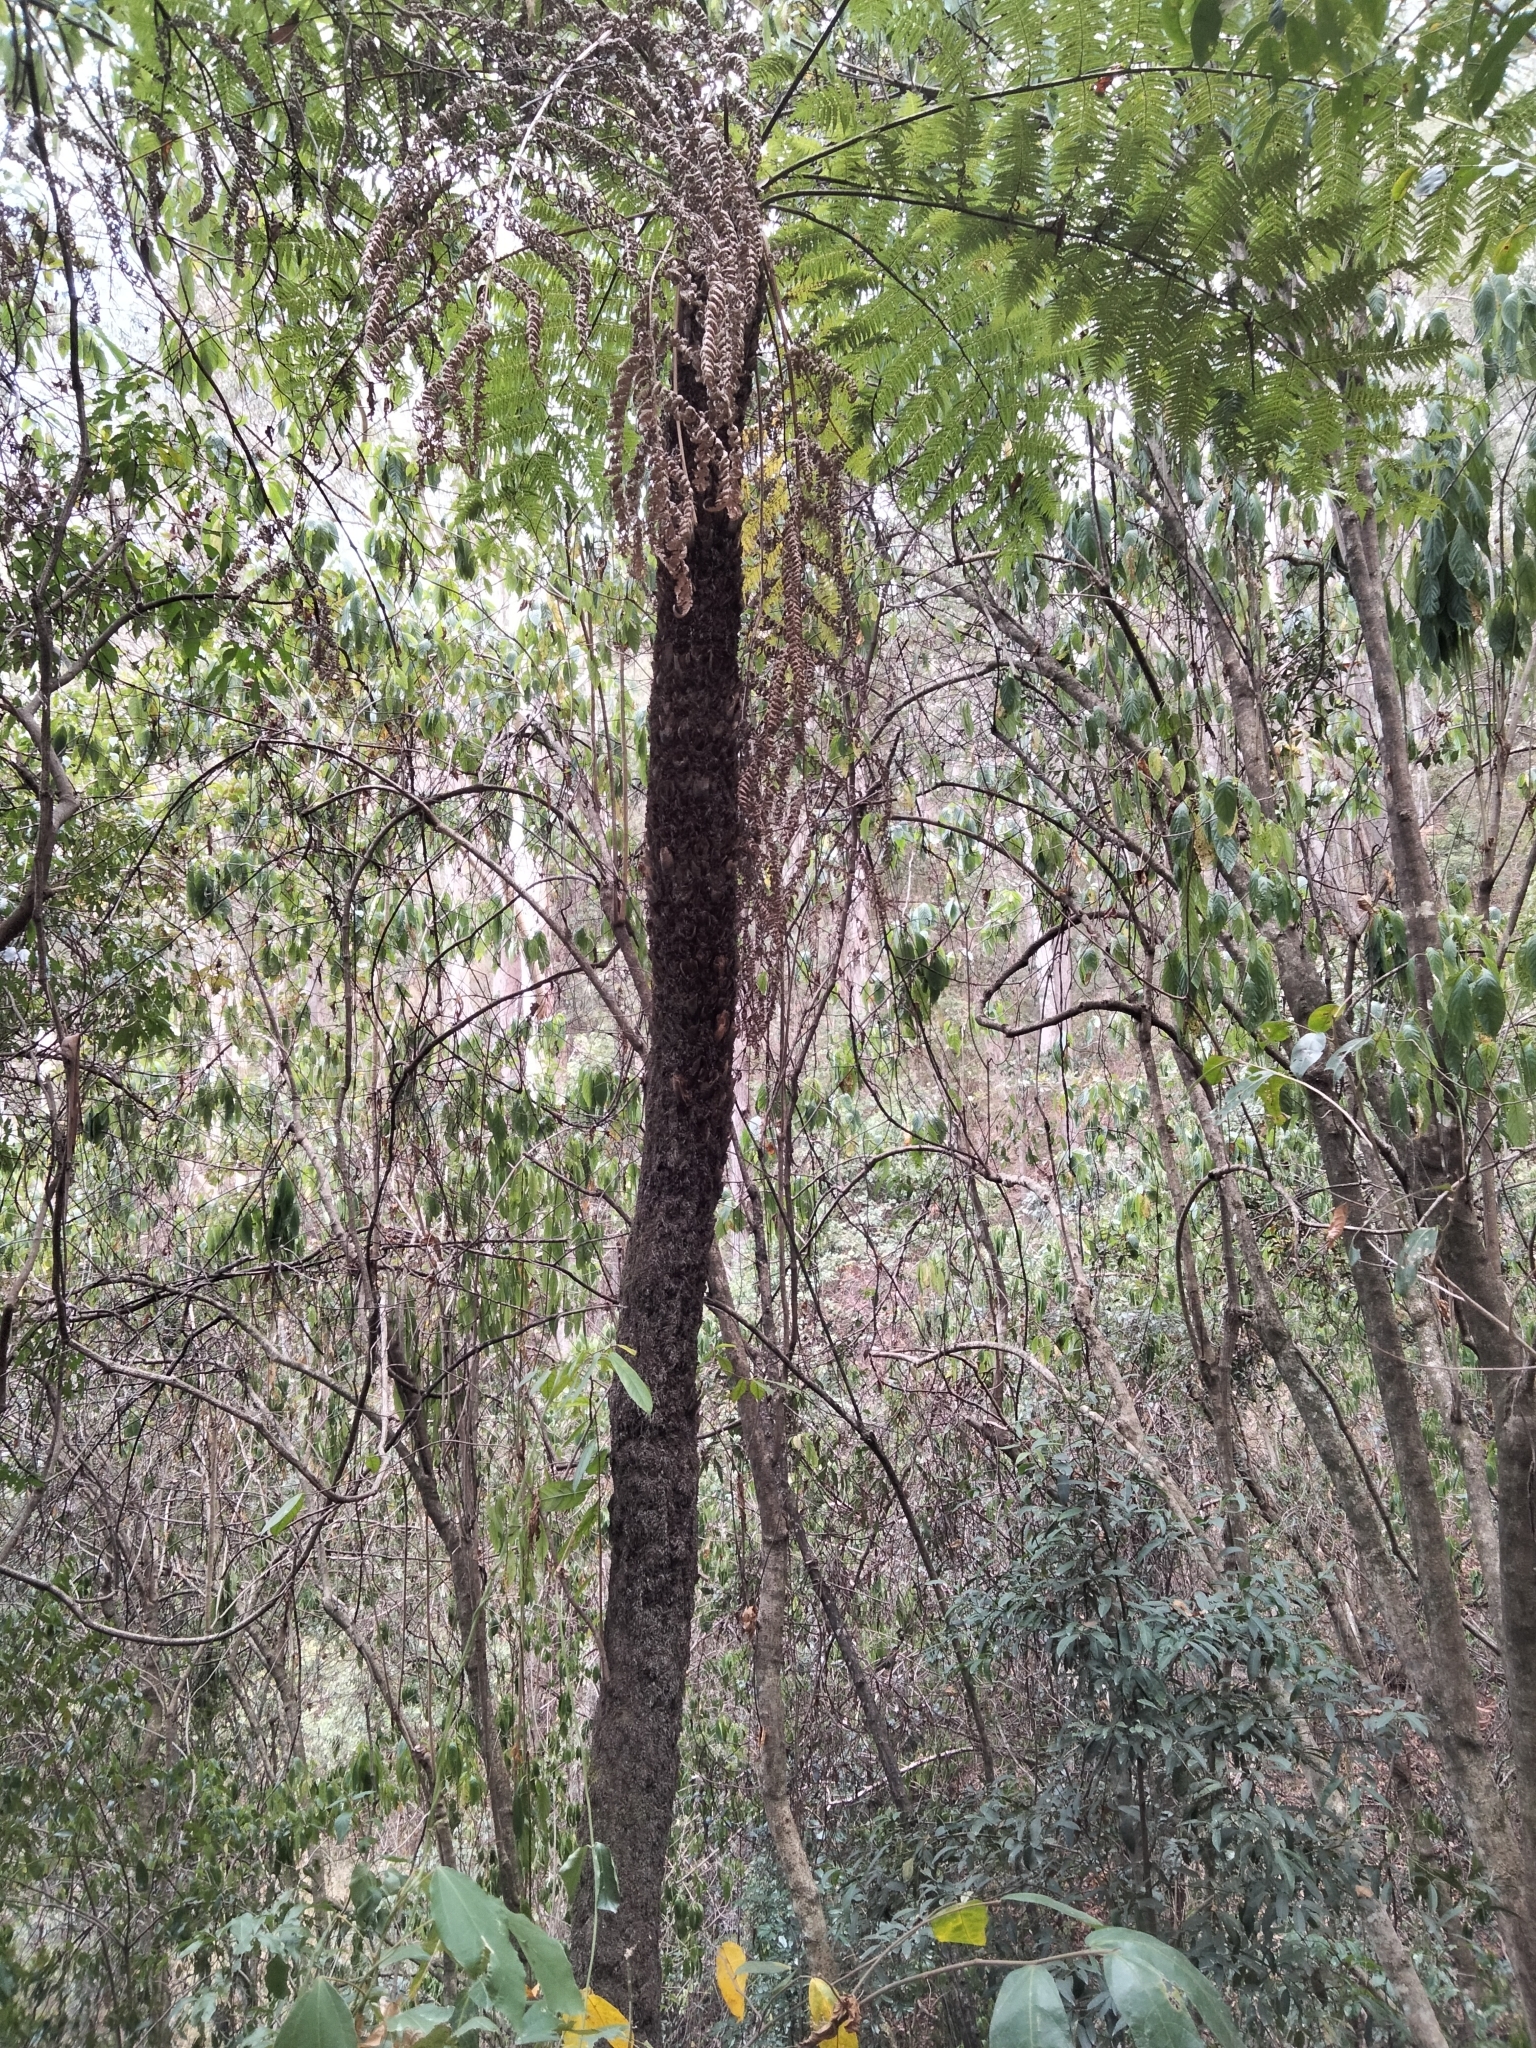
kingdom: Plantae
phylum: Tracheophyta
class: Polypodiopsida
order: Cyatheales
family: Cyatheaceae
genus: Alsophila
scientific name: Alsophila australis
